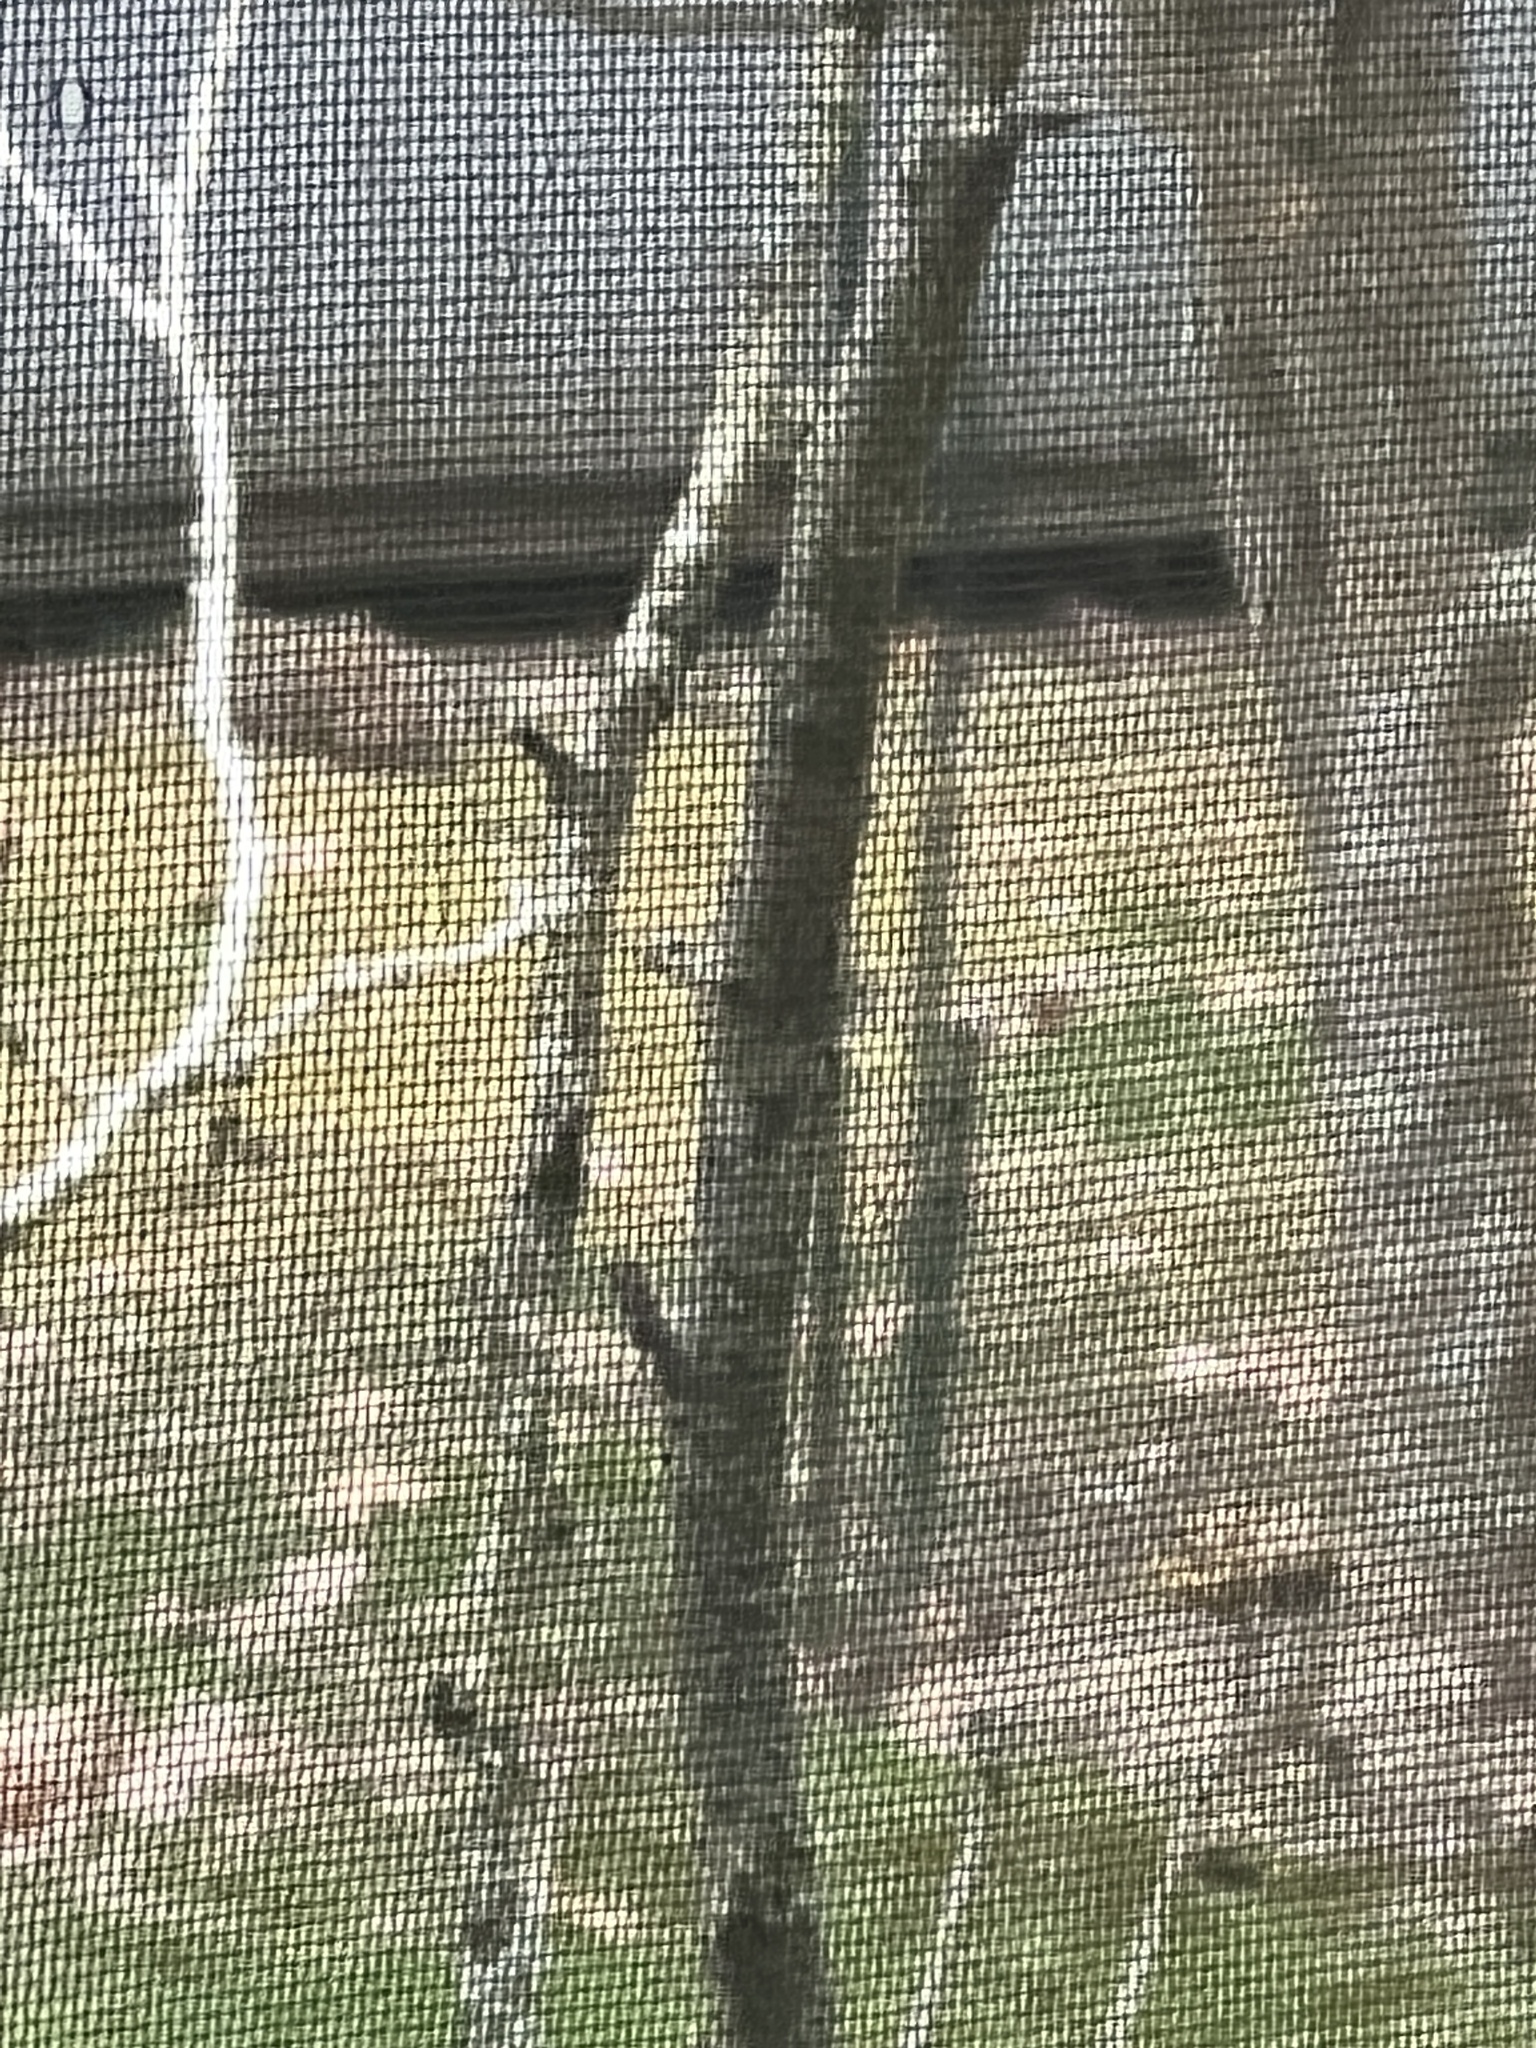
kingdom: Animalia
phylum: Chordata
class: Mammalia
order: Rodentia
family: Sciuridae
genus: Marmota
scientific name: Marmota monax
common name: Groundhog
